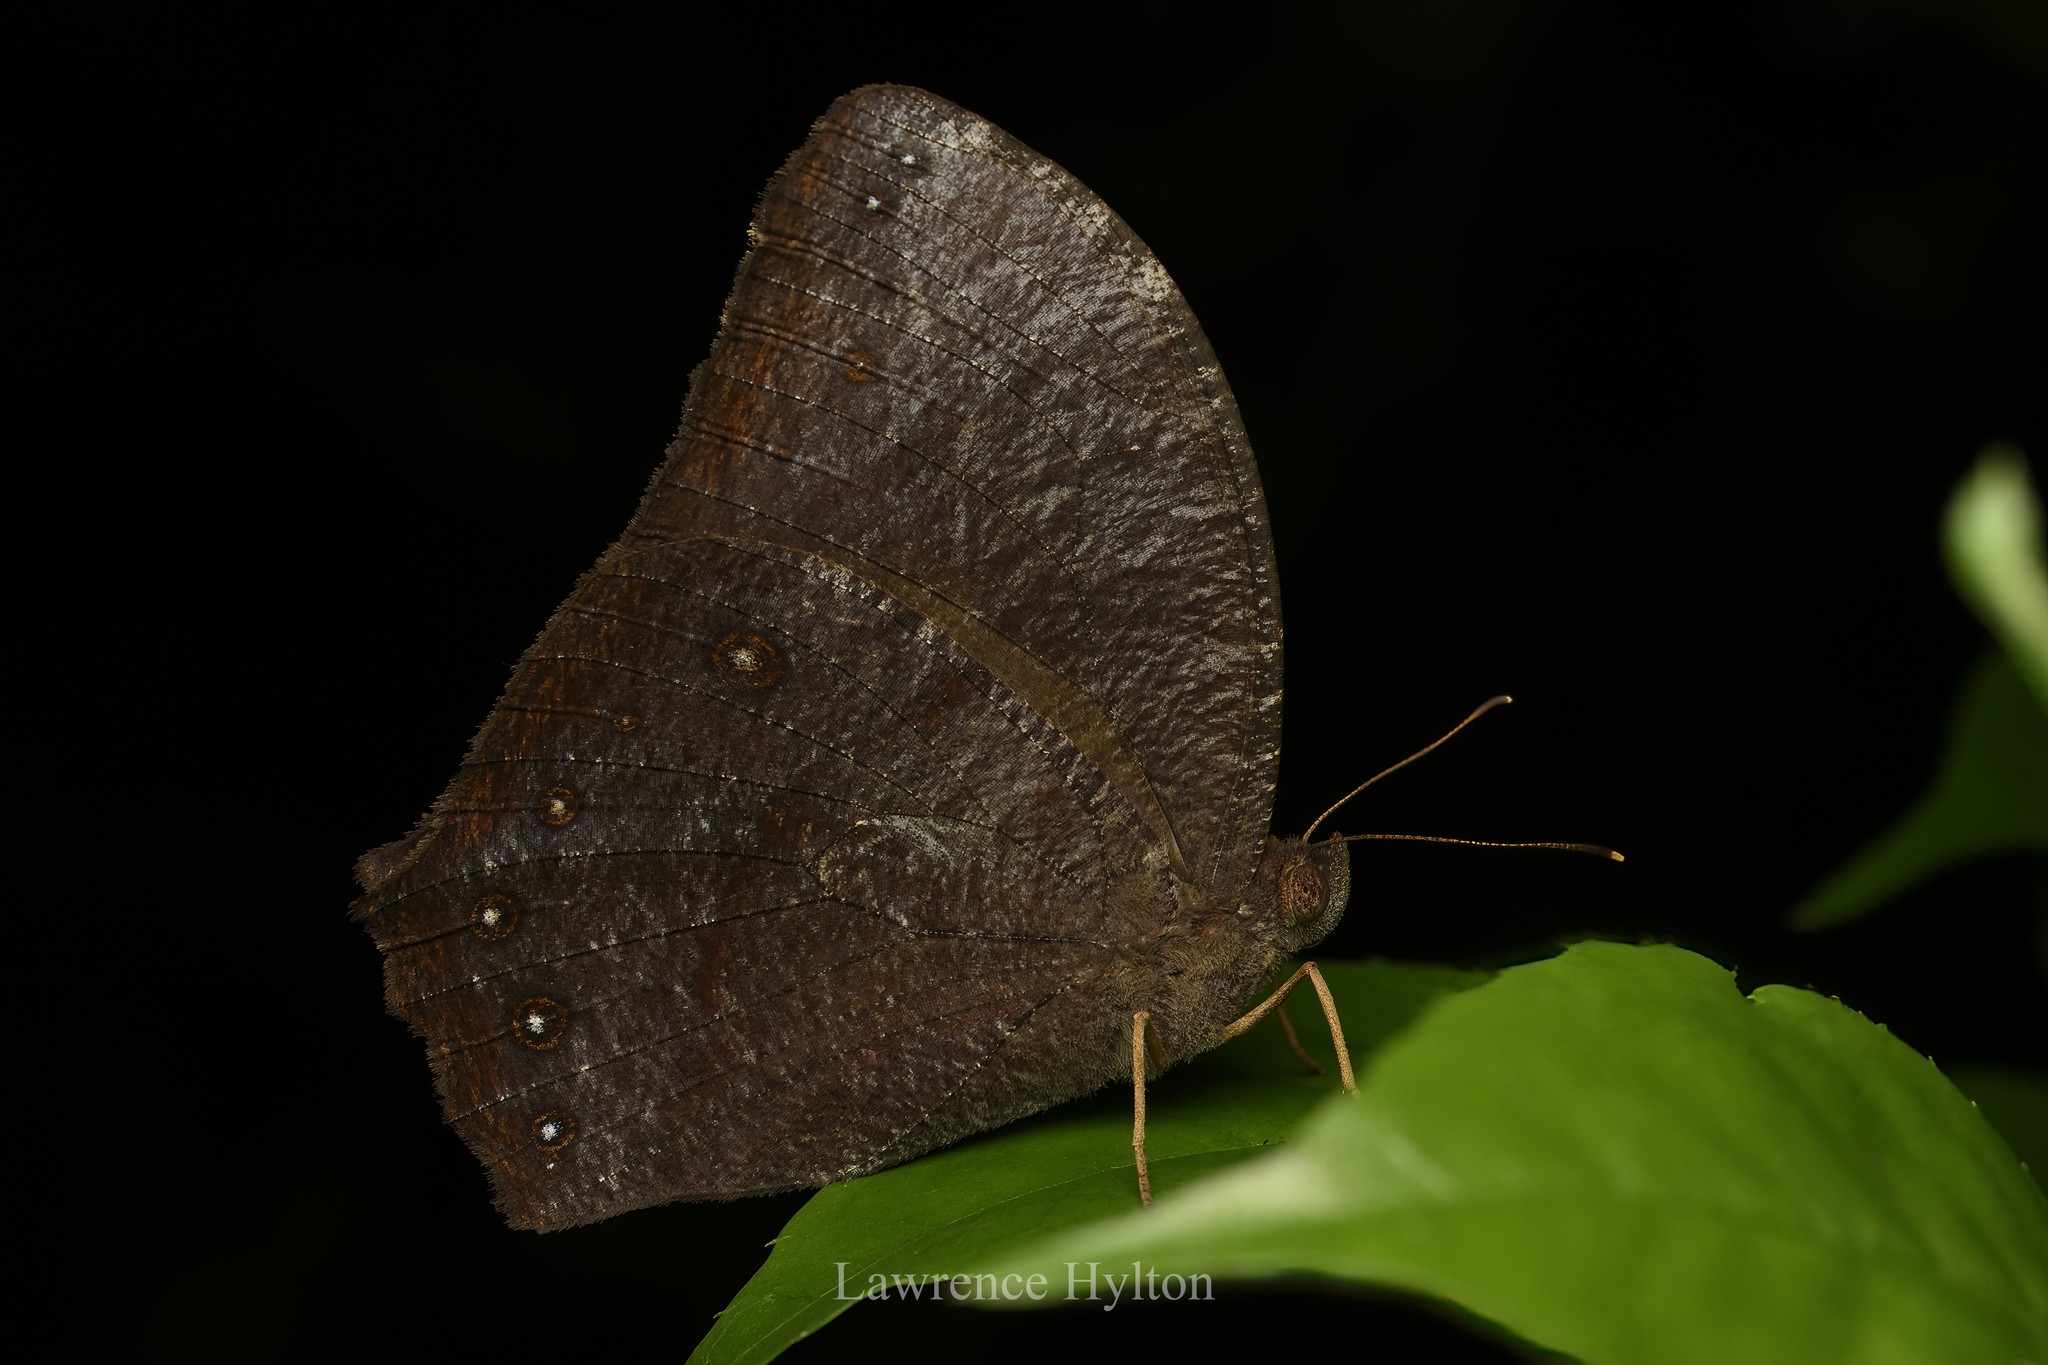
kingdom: Animalia
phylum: Arthropoda
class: Insecta
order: Lepidoptera
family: Nymphalidae
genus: Melanitis
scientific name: Melanitis phedima
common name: Dark evening brown
